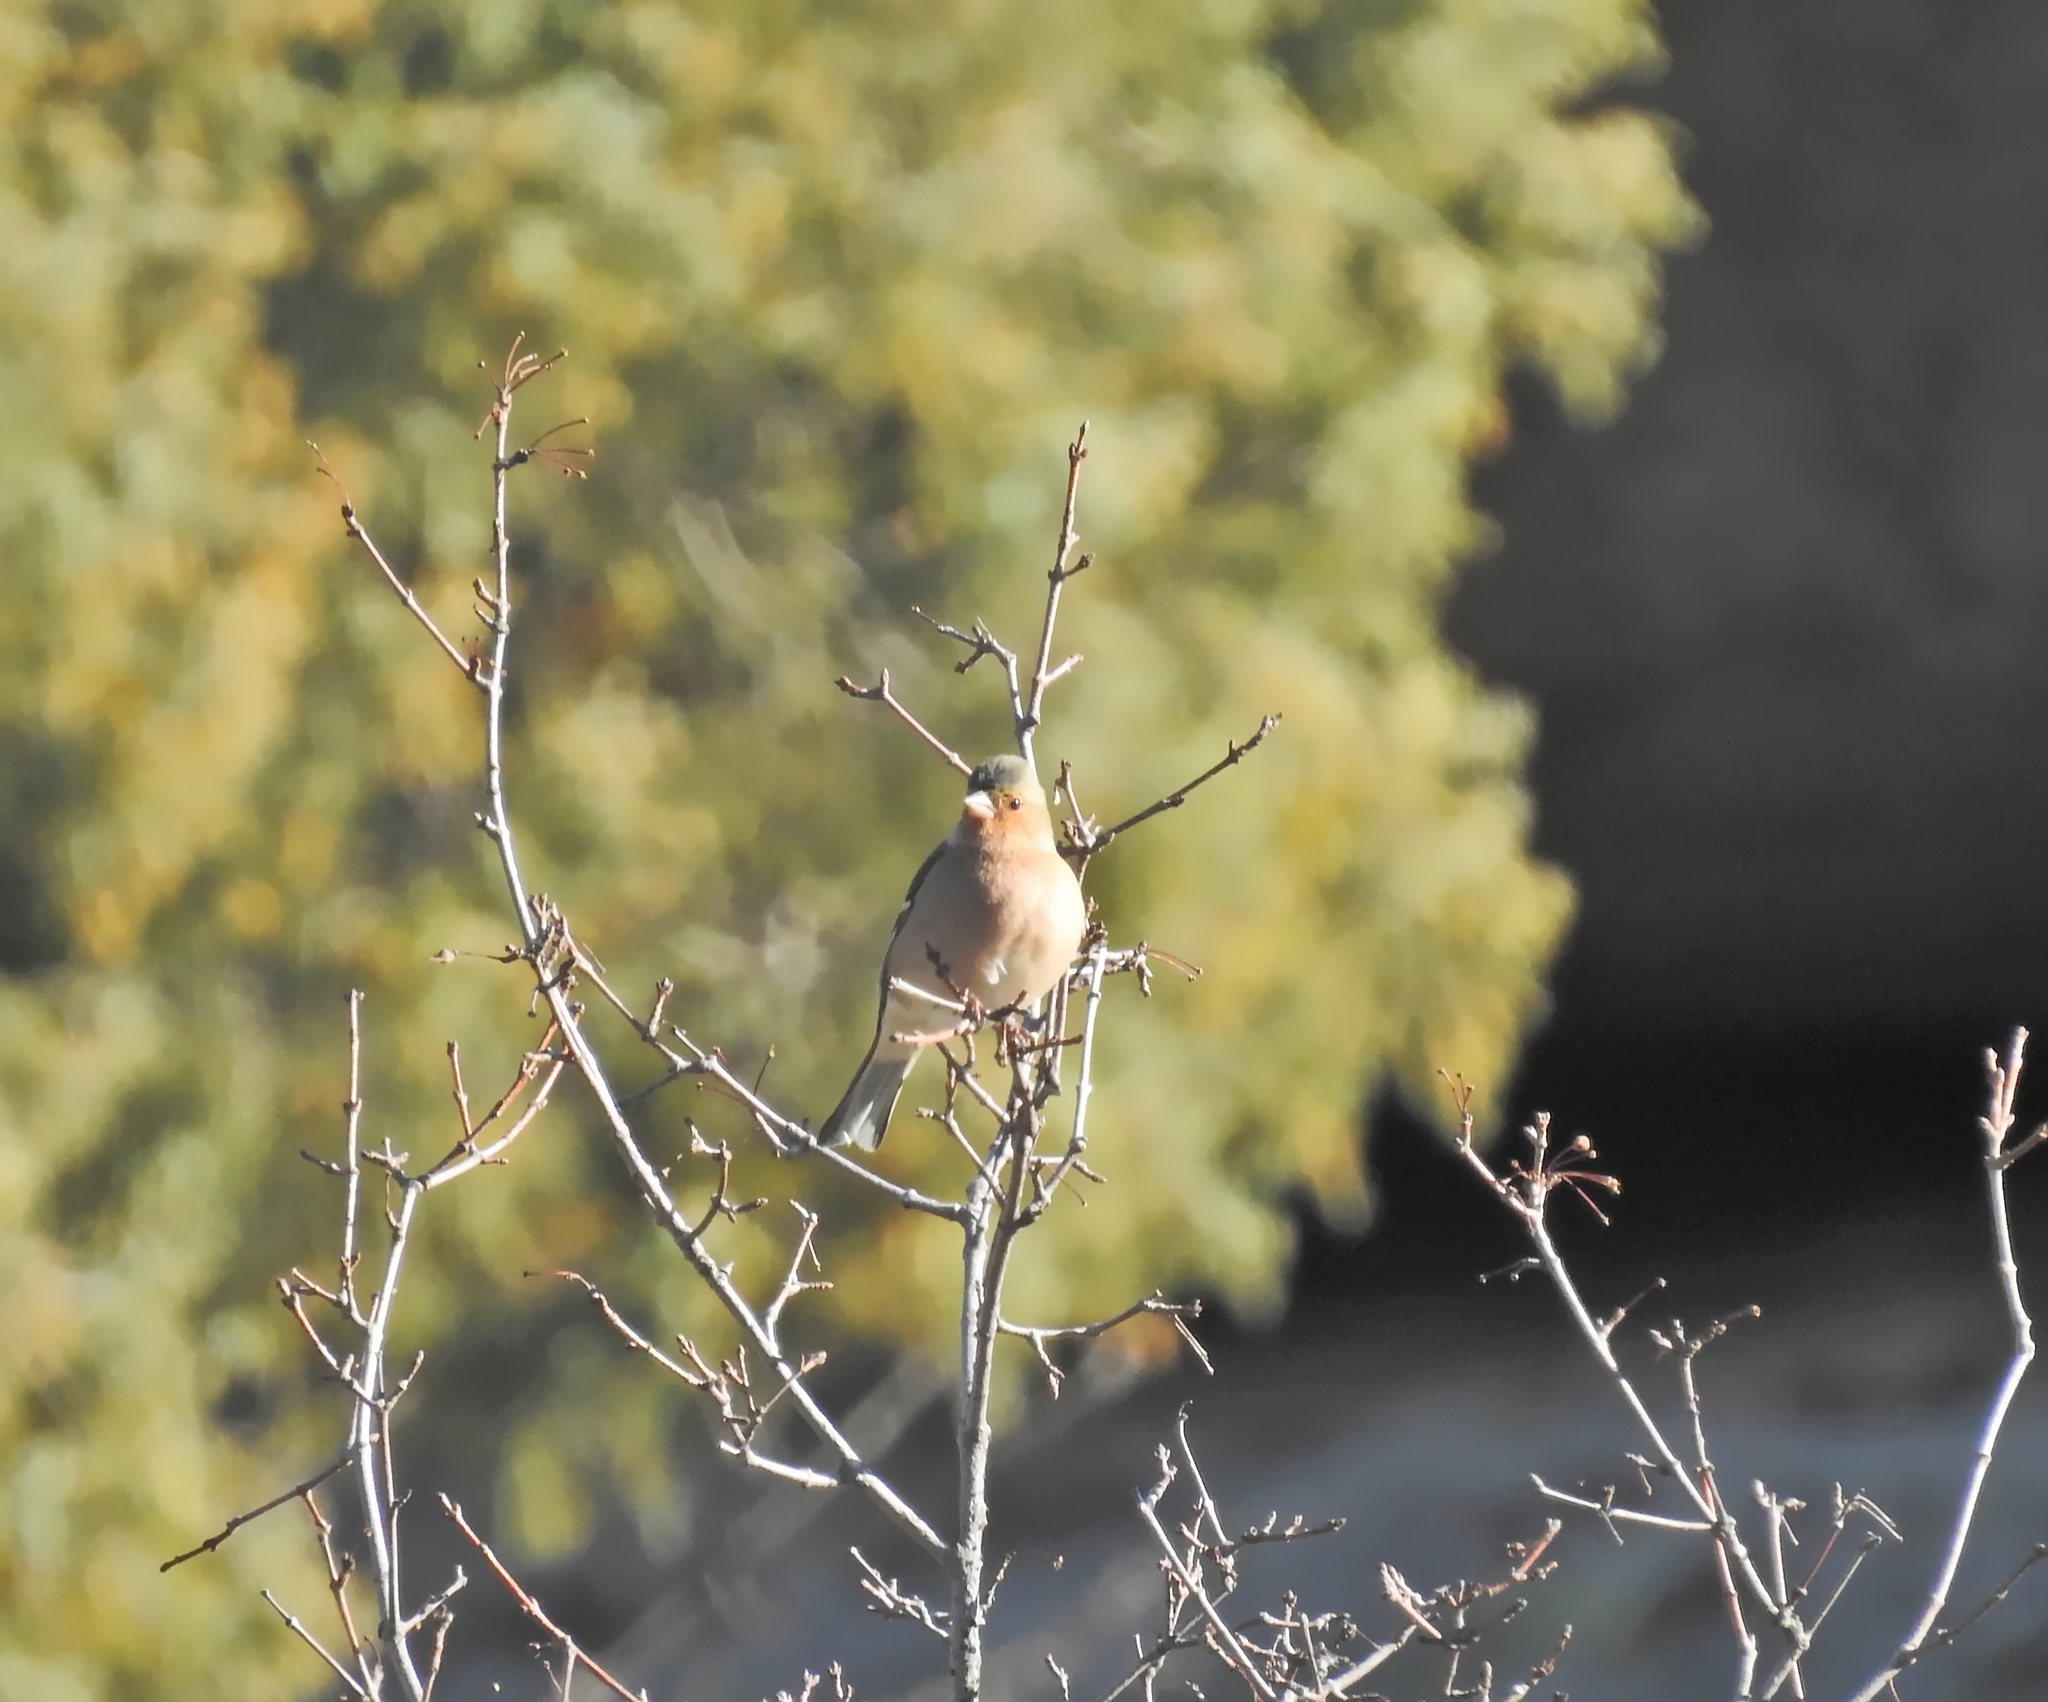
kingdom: Animalia
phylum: Chordata
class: Aves
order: Passeriformes
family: Fringillidae
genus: Fringilla
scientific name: Fringilla coelebs
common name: Common chaffinch
